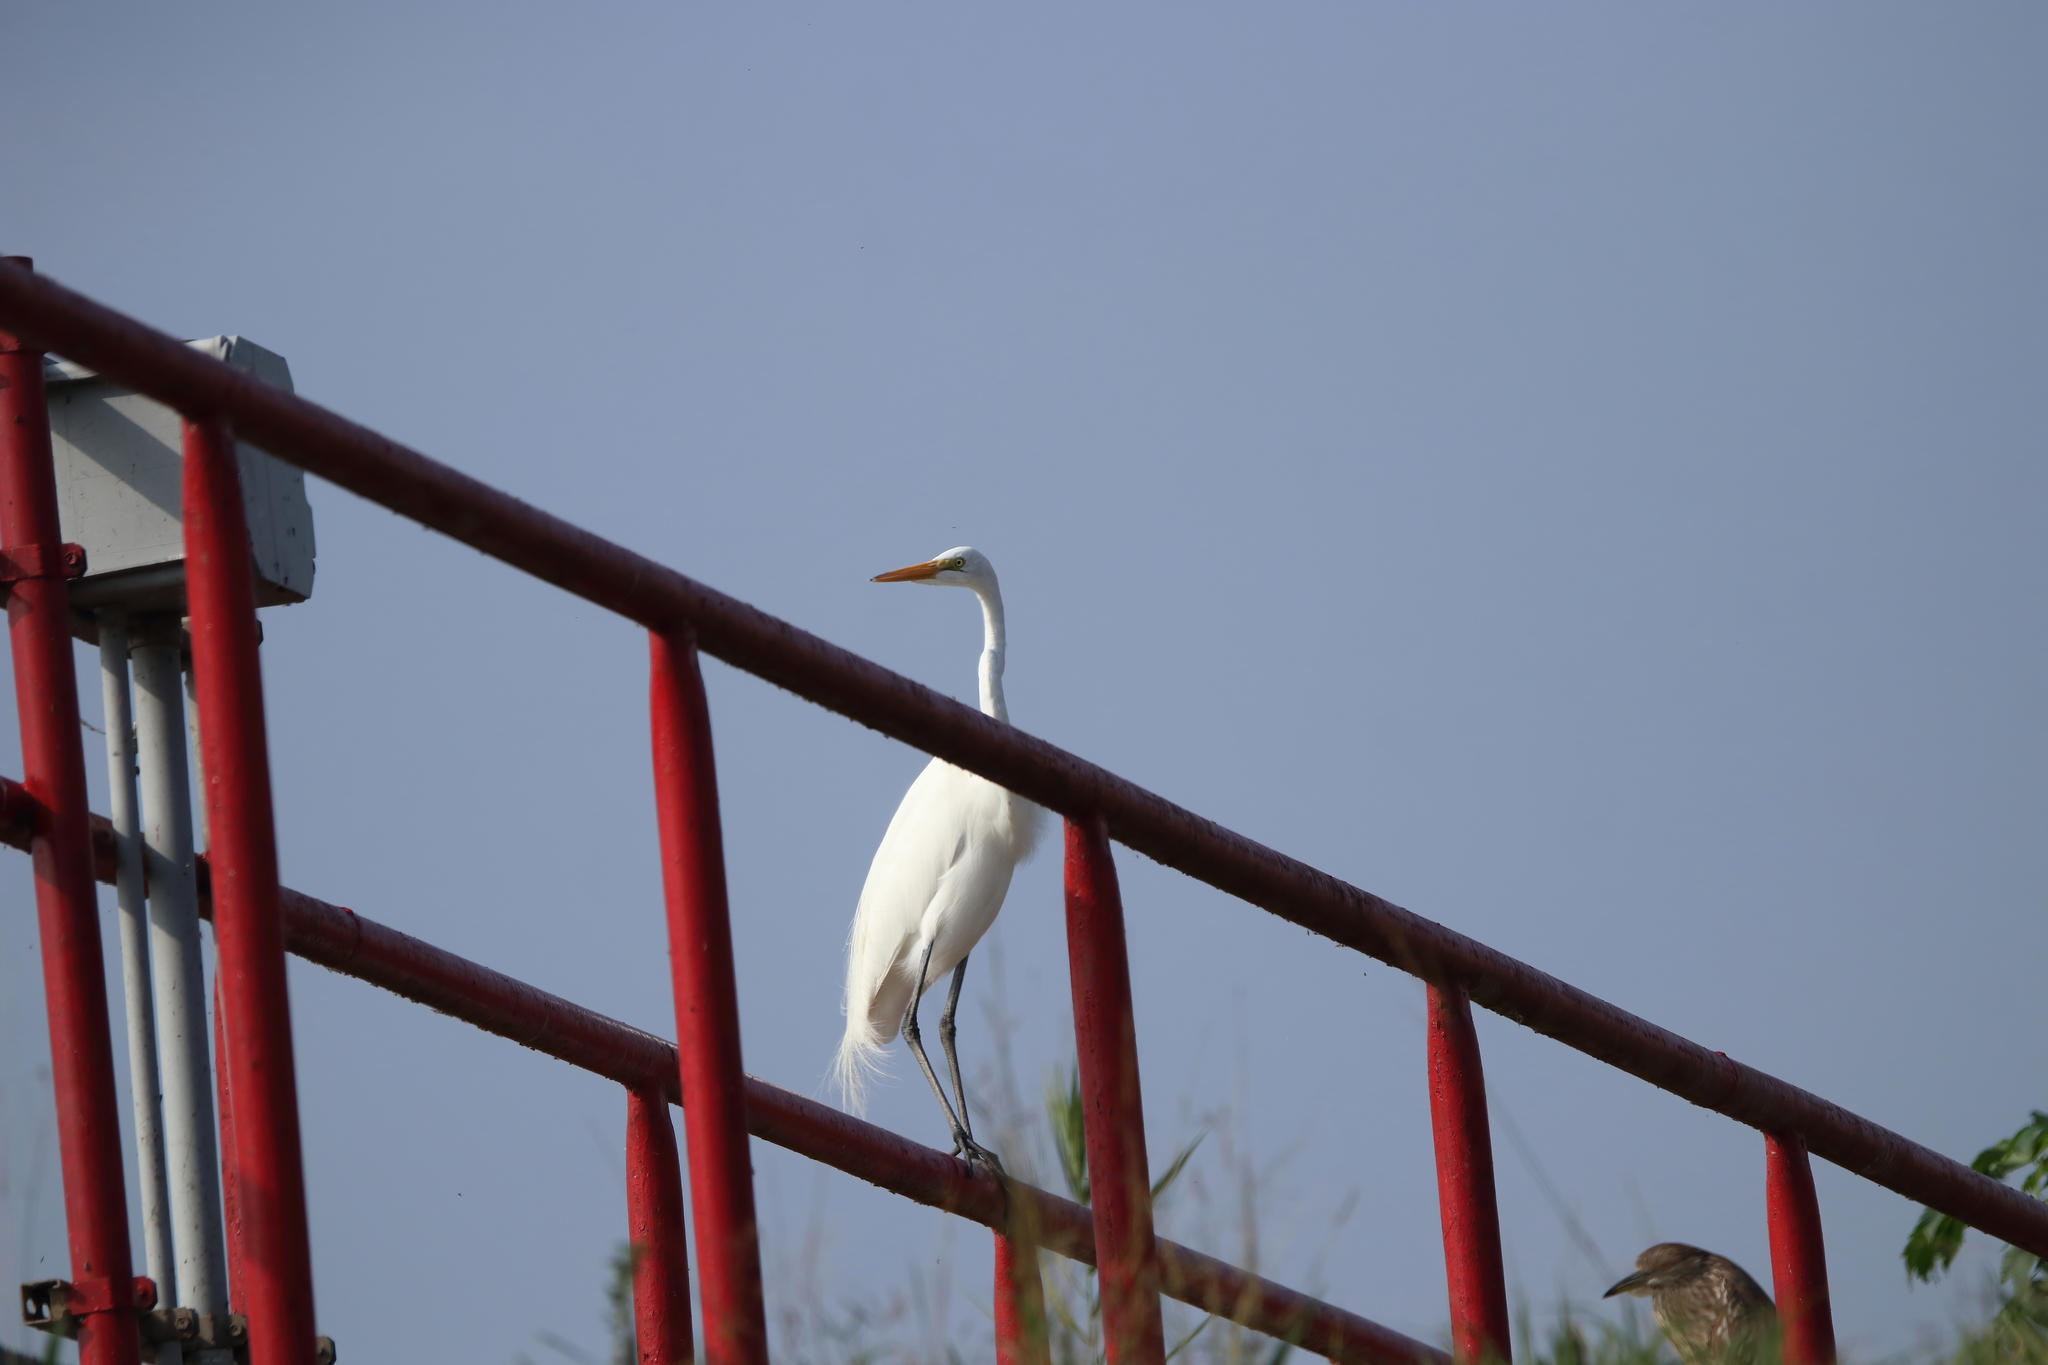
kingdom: Animalia
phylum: Chordata
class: Aves
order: Pelecaniformes
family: Ardeidae
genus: Ardea
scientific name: Ardea alba
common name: Great egret
